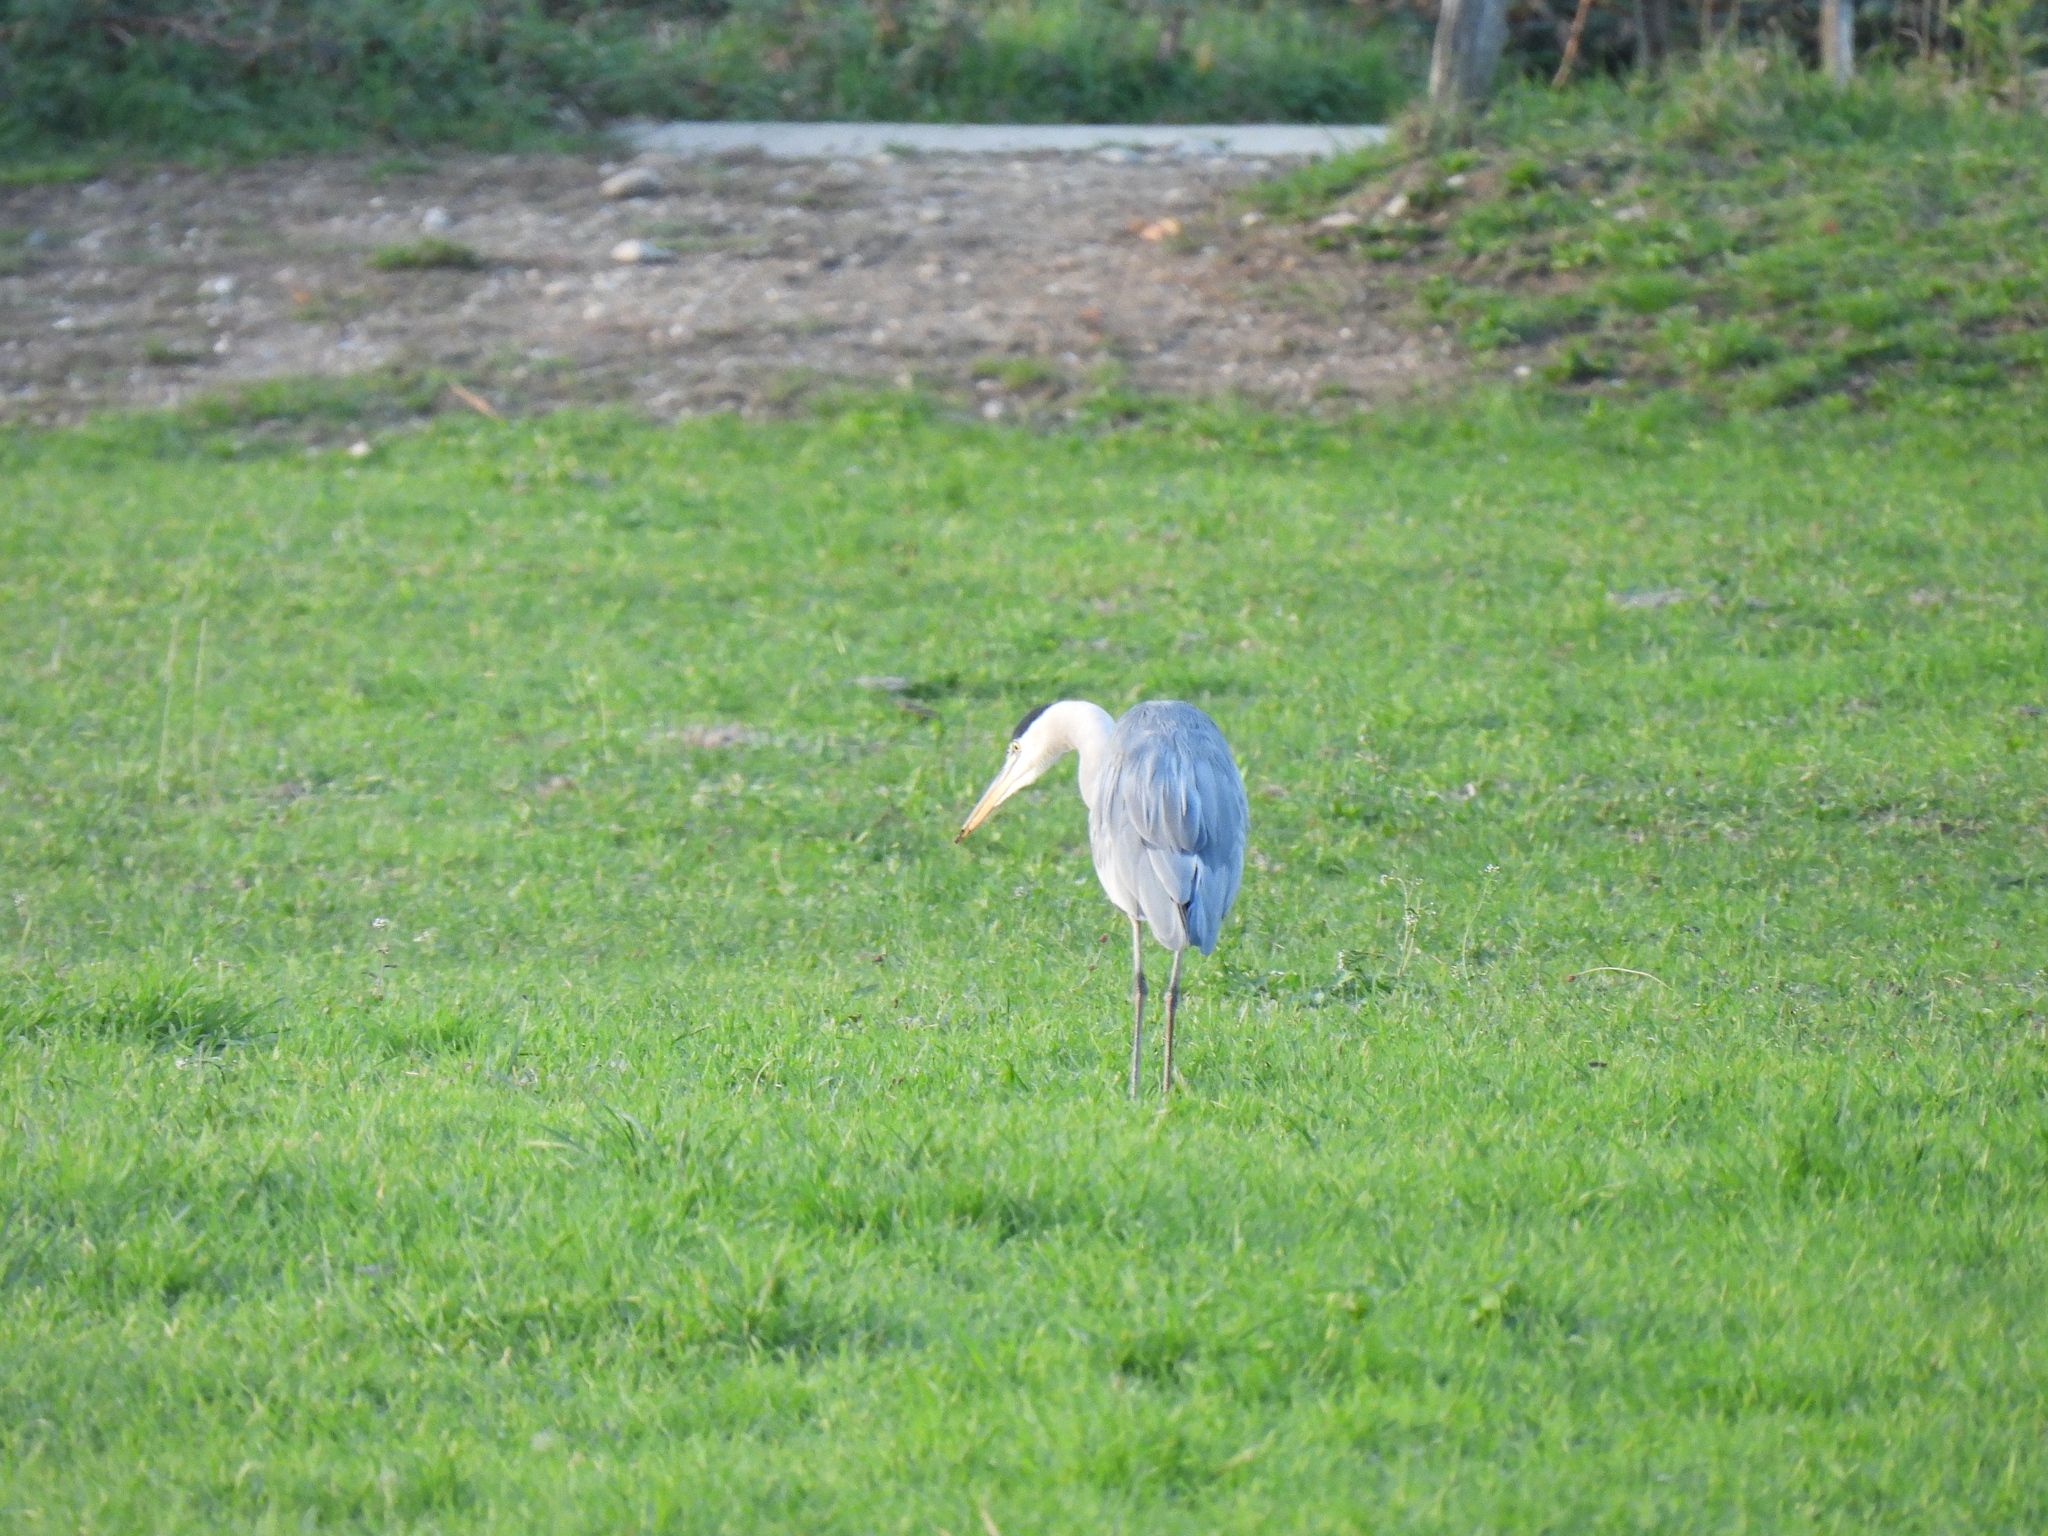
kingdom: Animalia
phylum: Chordata
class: Aves
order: Pelecaniformes
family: Ardeidae
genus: Ardea
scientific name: Ardea cinerea
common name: Grey heron
